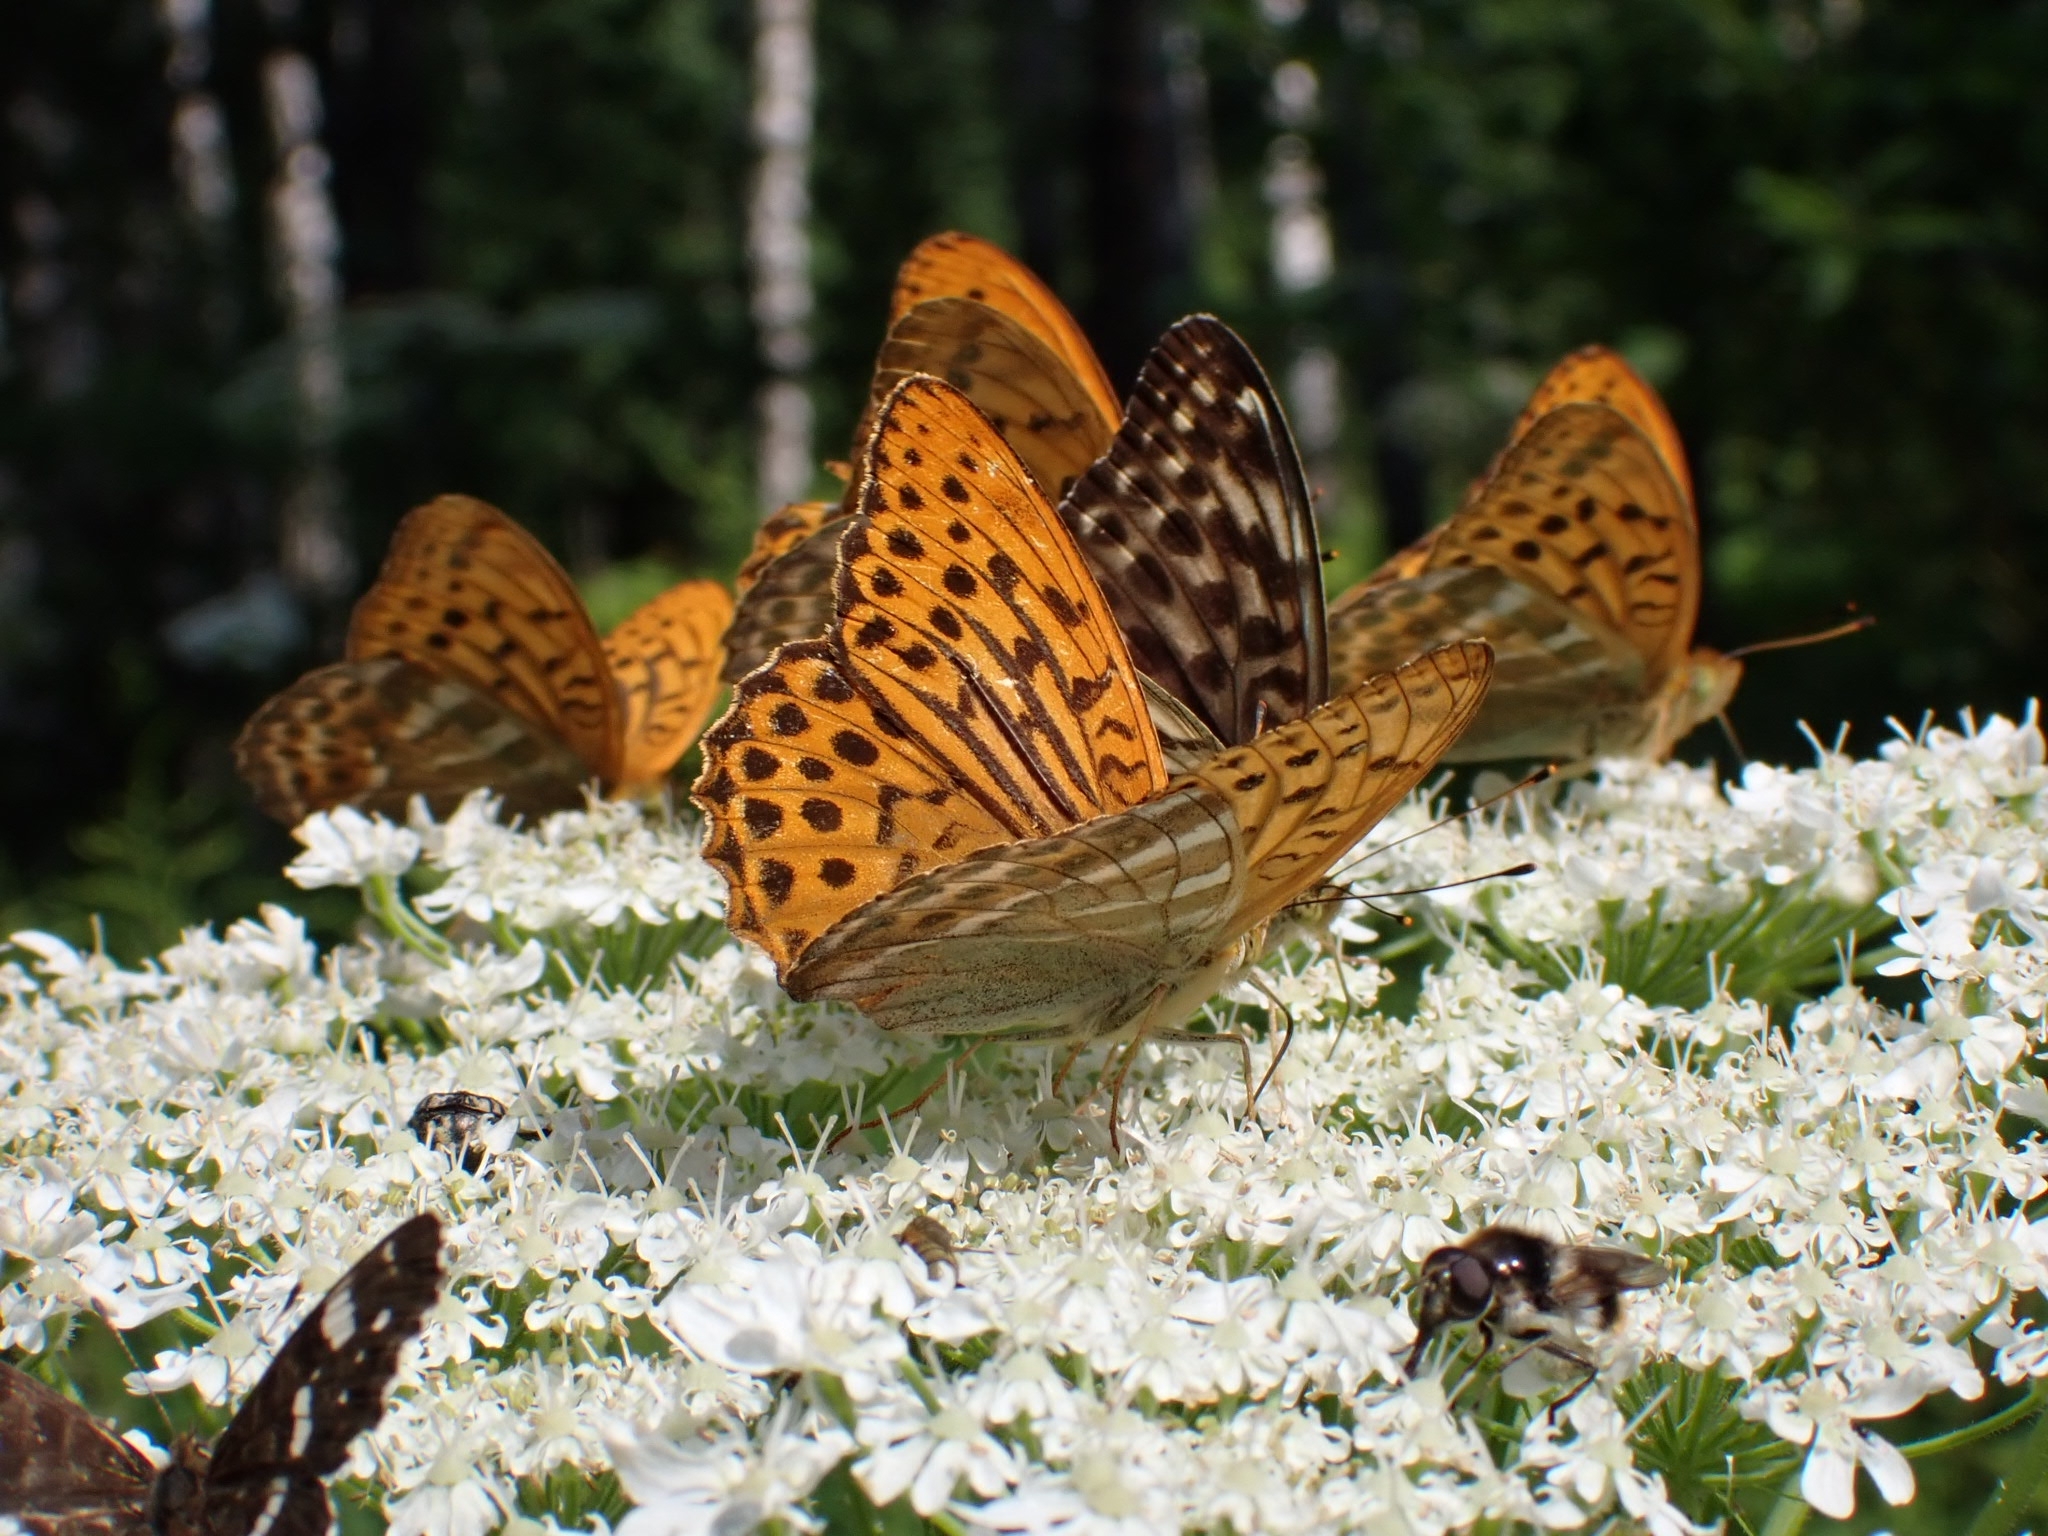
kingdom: Animalia
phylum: Arthropoda
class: Insecta
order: Lepidoptera
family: Nymphalidae
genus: Argynnis
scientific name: Argynnis paphia
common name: Silver-washed fritillary
